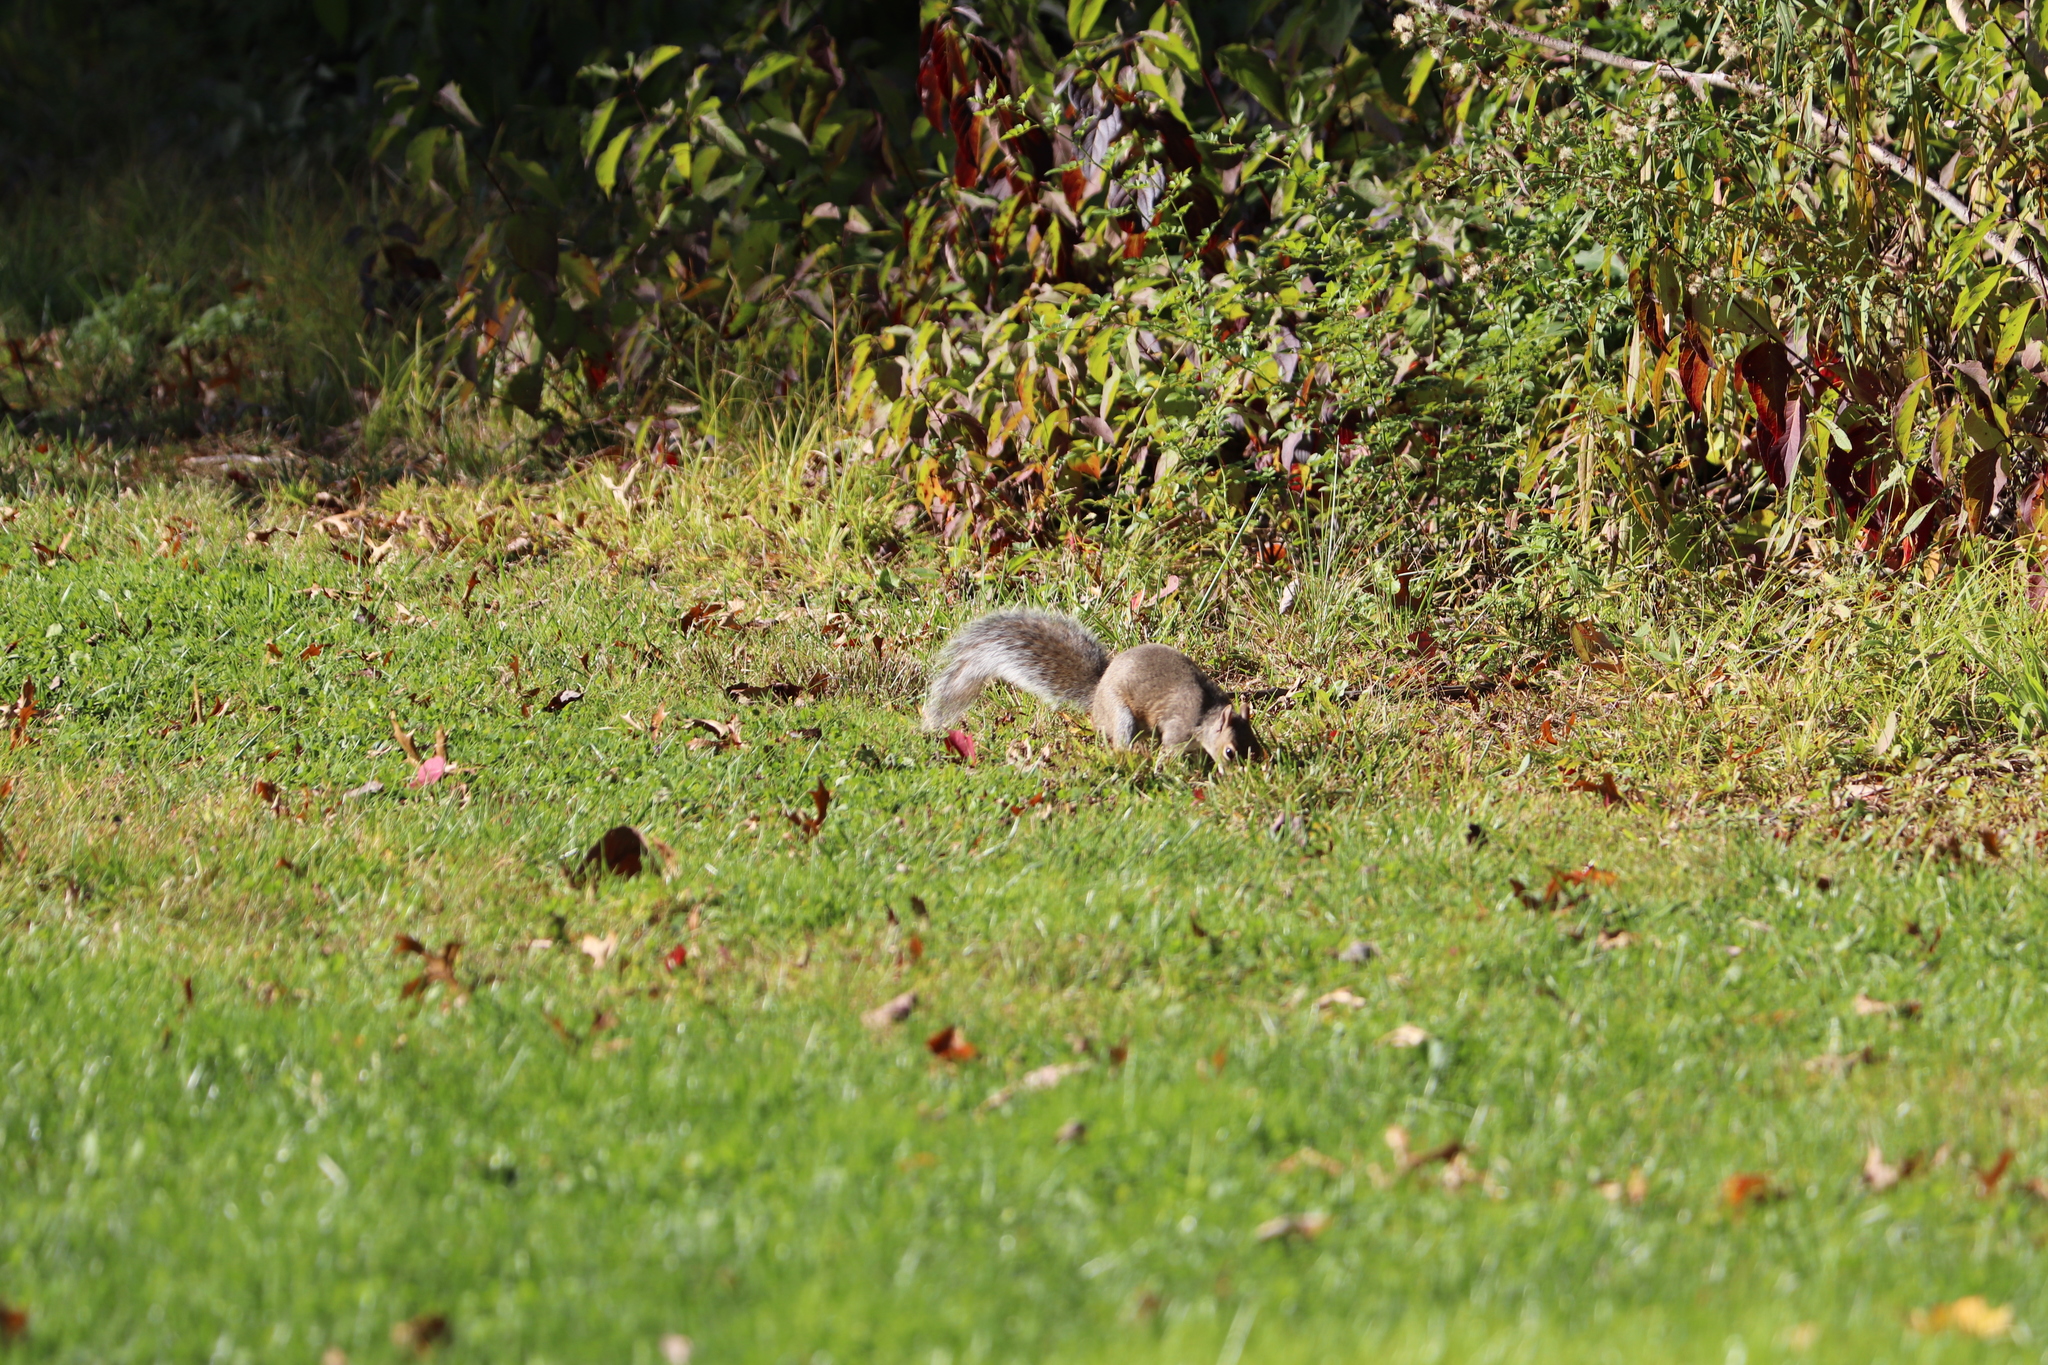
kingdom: Animalia
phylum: Chordata
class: Mammalia
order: Rodentia
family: Sciuridae
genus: Sciurus
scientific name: Sciurus carolinensis
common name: Eastern gray squirrel
